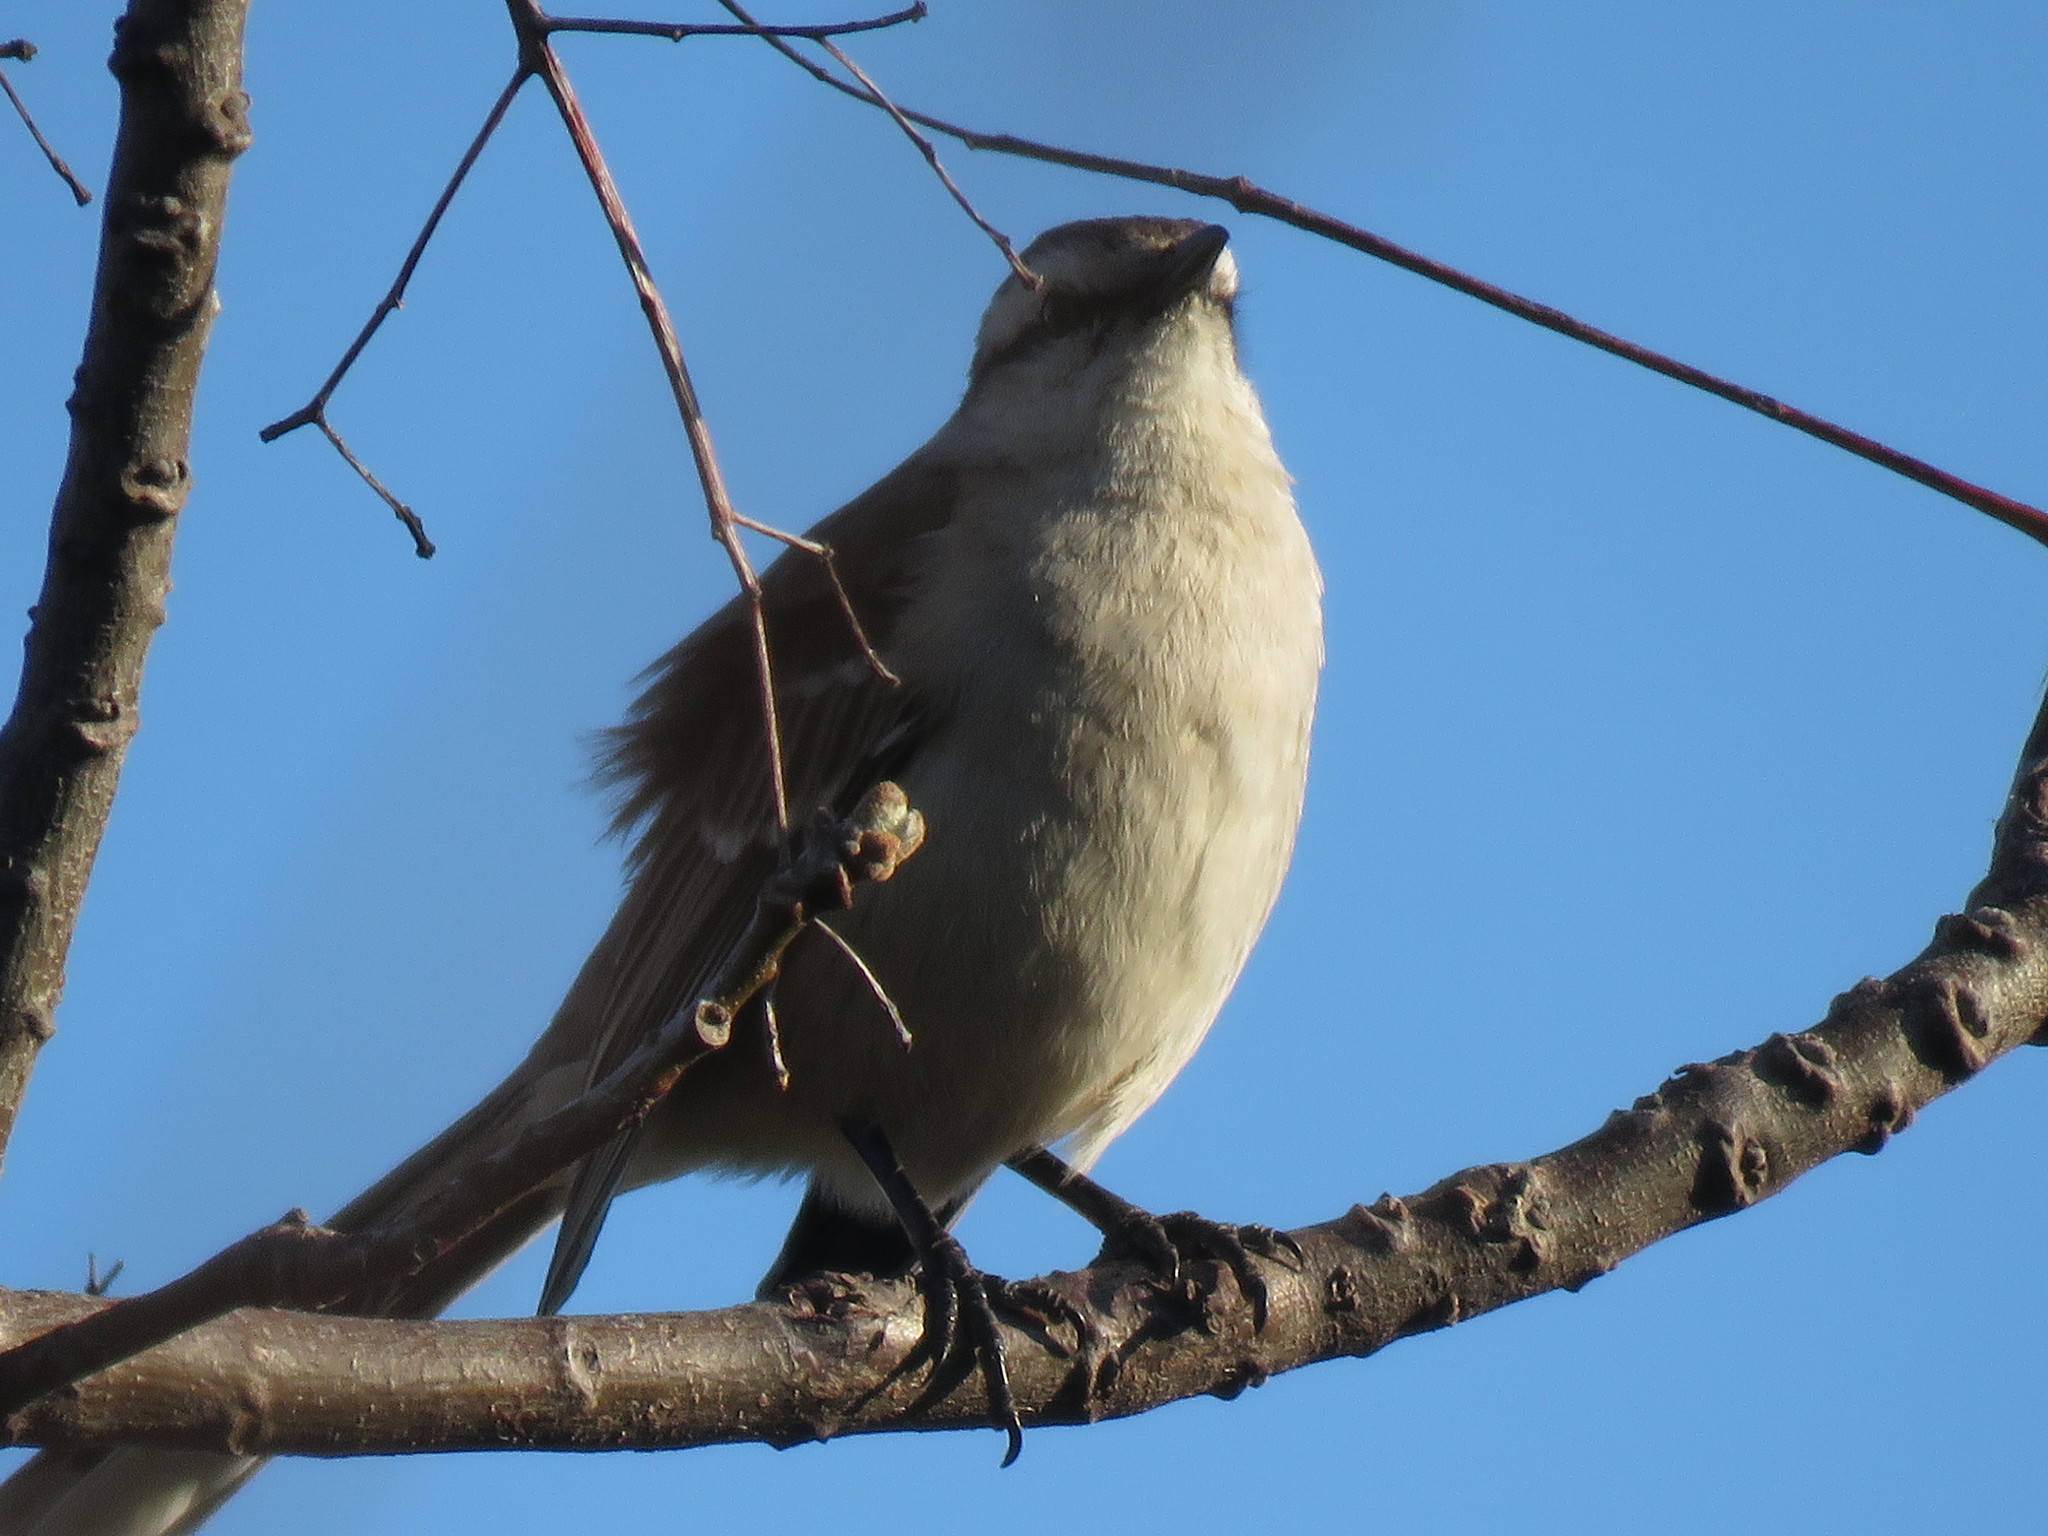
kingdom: Animalia
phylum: Chordata
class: Aves
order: Passeriformes
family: Mimidae
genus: Mimus
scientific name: Mimus saturninus
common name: Chalk-browed mockingbird
